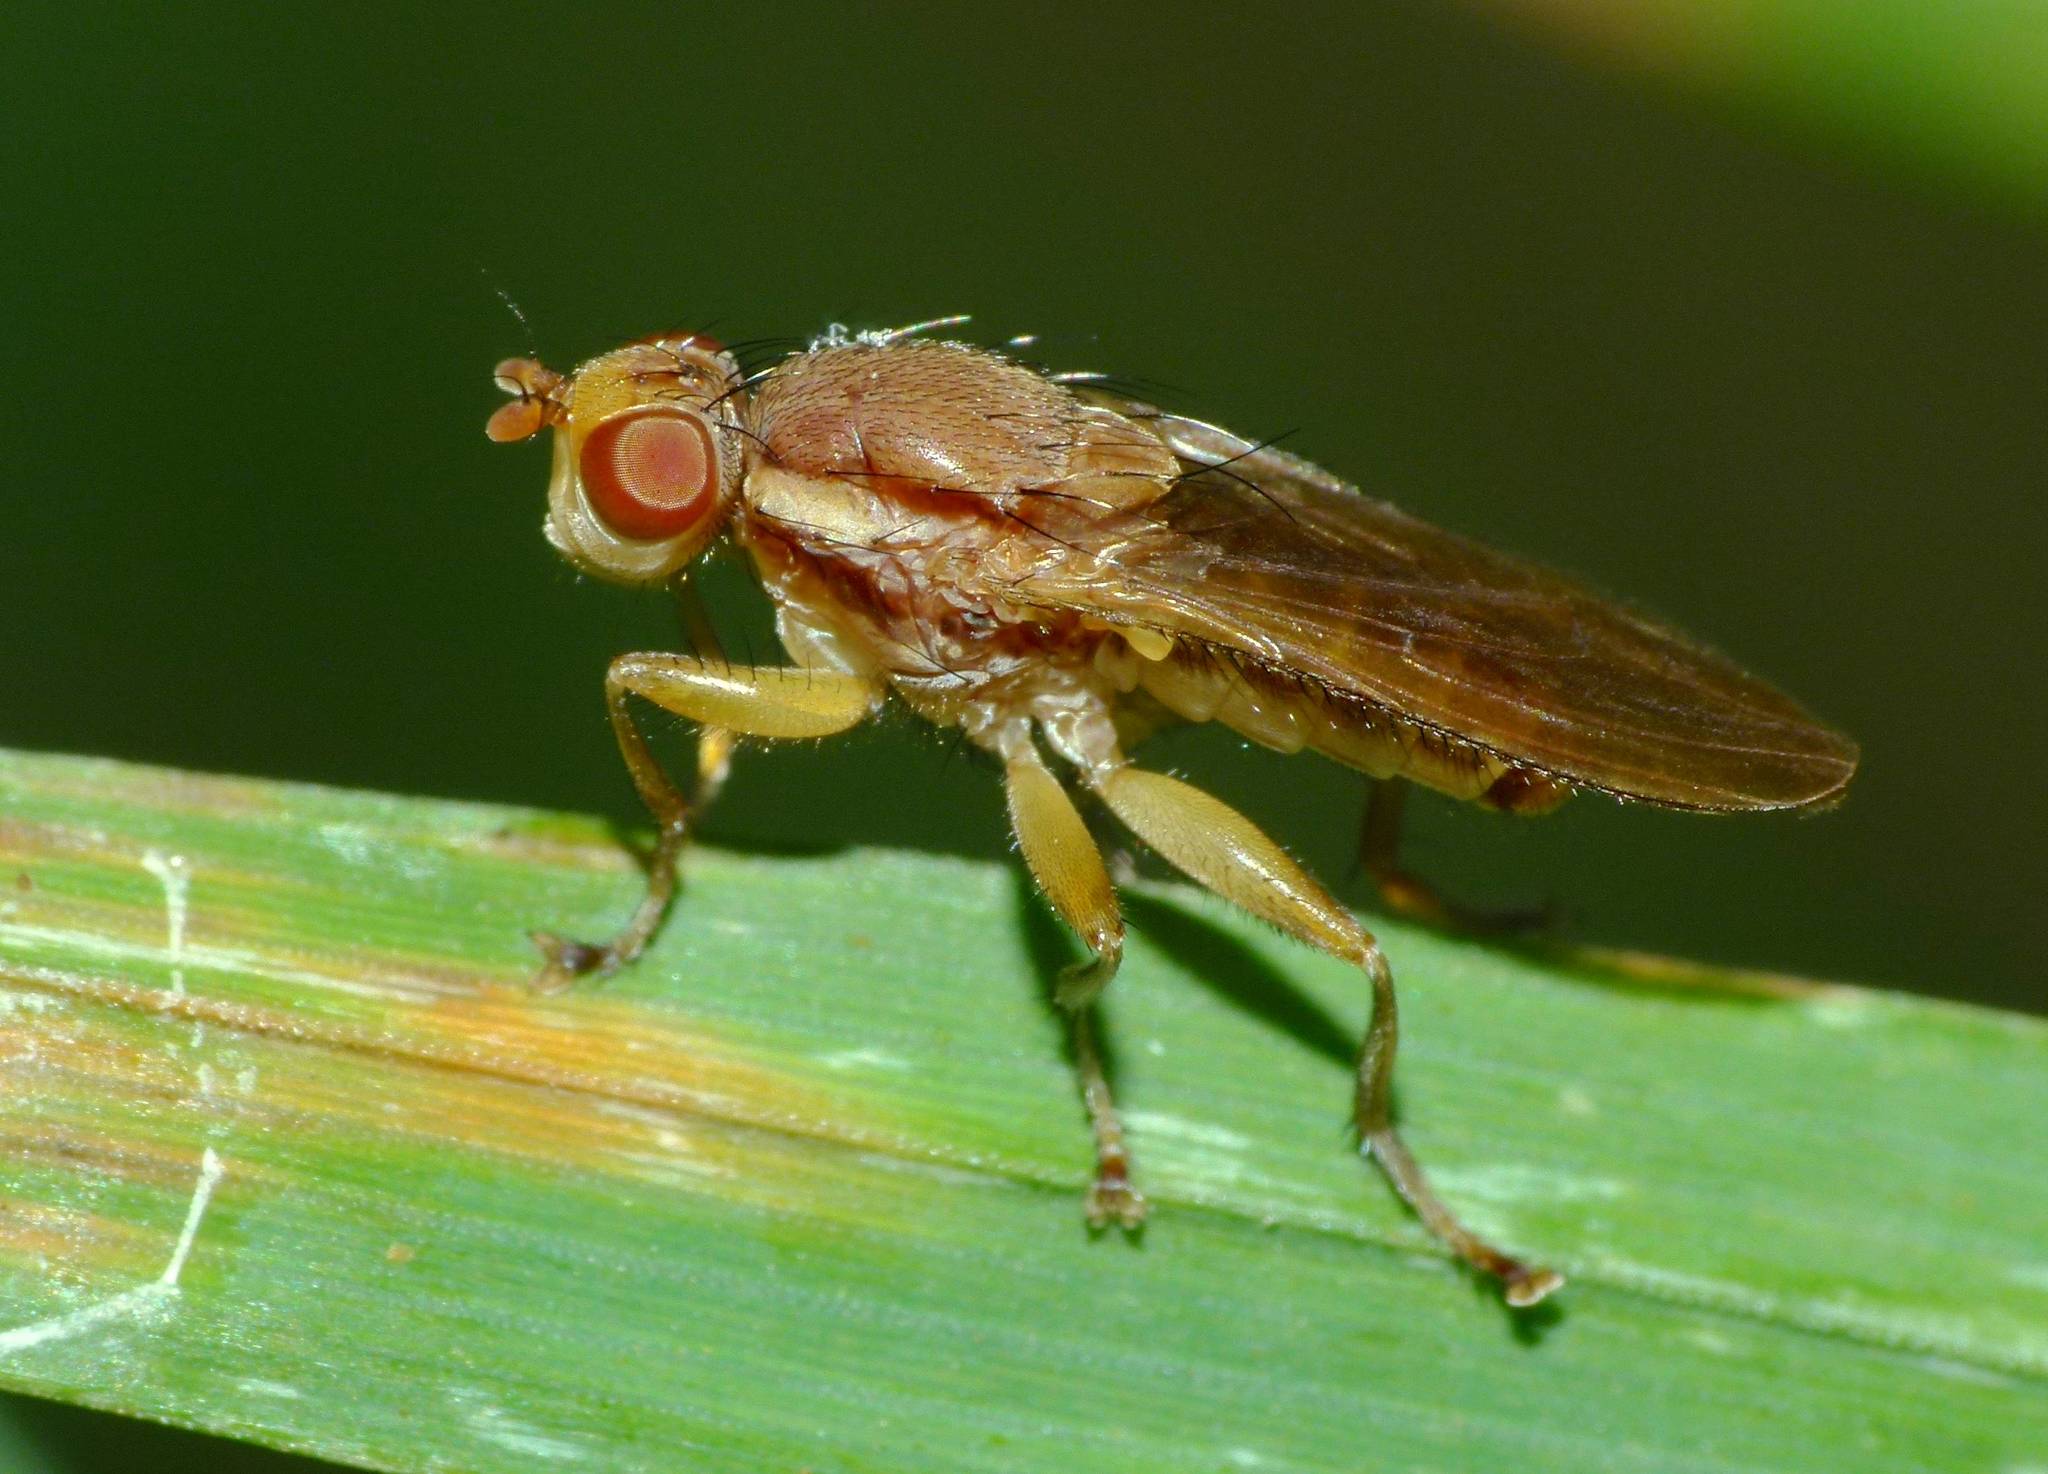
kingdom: Animalia
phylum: Arthropoda
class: Insecta
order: Diptera
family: Helosciomyzidae
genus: Napaeosciomyza
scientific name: Napaeosciomyza spinicosta
